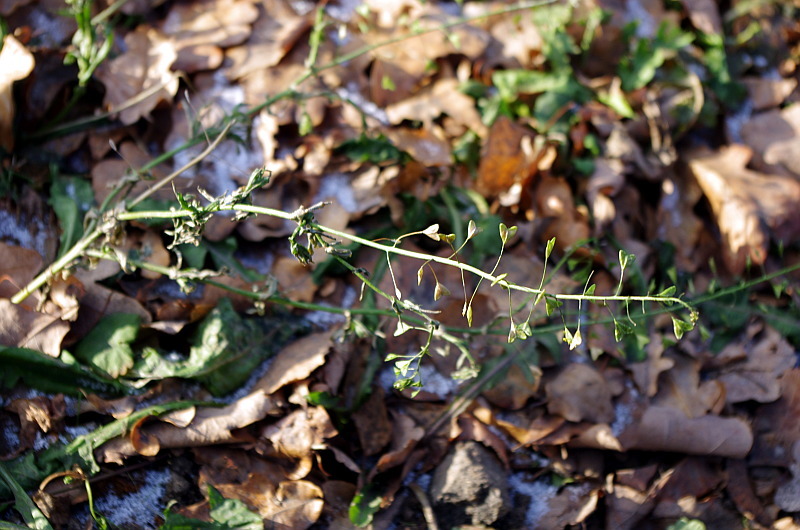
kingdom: Plantae
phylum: Tracheophyta
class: Magnoliopsida
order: Brassicales
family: Brassicaceae
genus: Capsella
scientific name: Capsella bursa-pastoris
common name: Shepherd's purse
